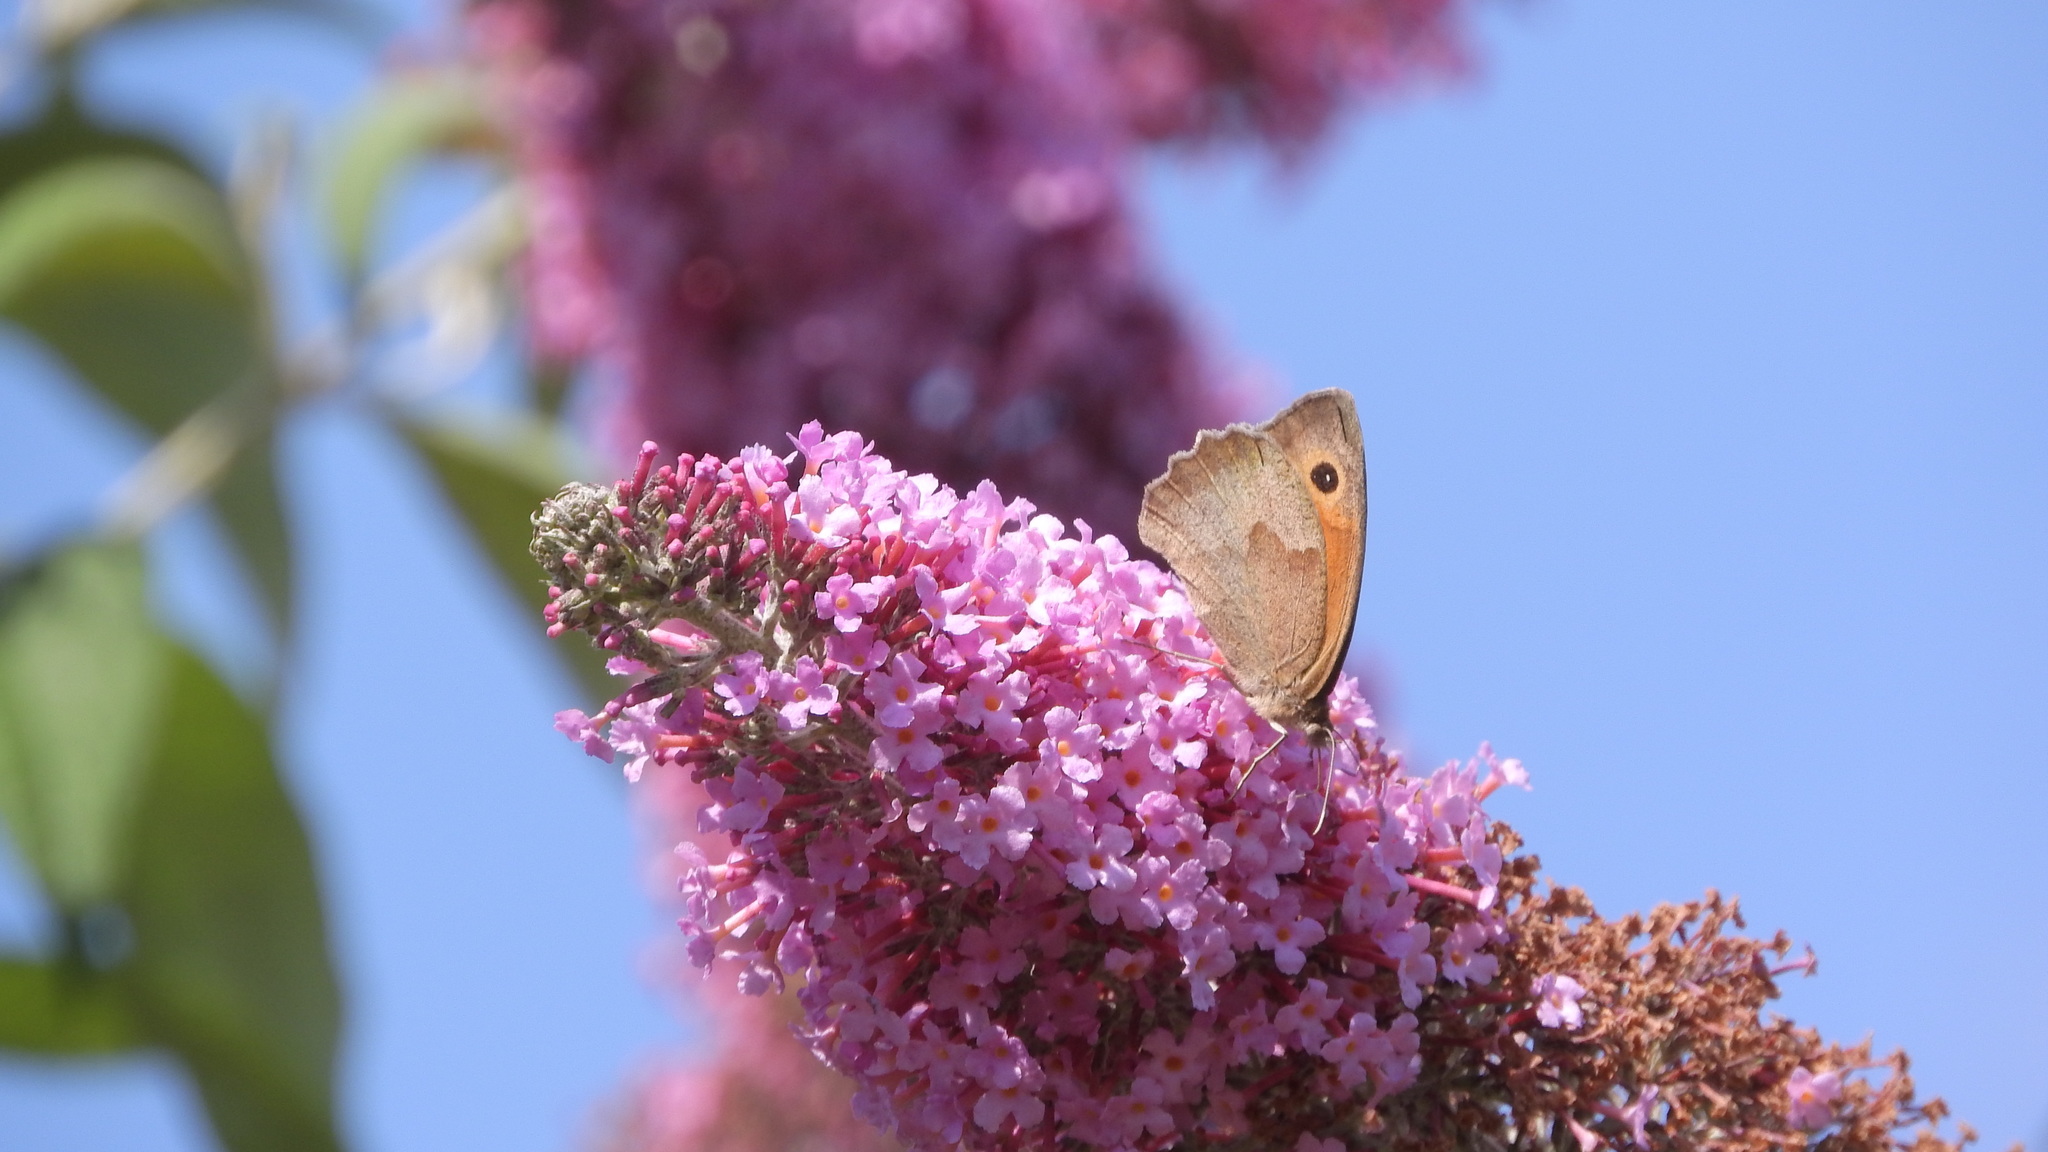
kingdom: Animalia
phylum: Arthropoda
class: Insecta
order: Lepidoptera
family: Nymphalidae
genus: Maniola
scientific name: Maniola jurtina
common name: Meadow brown
